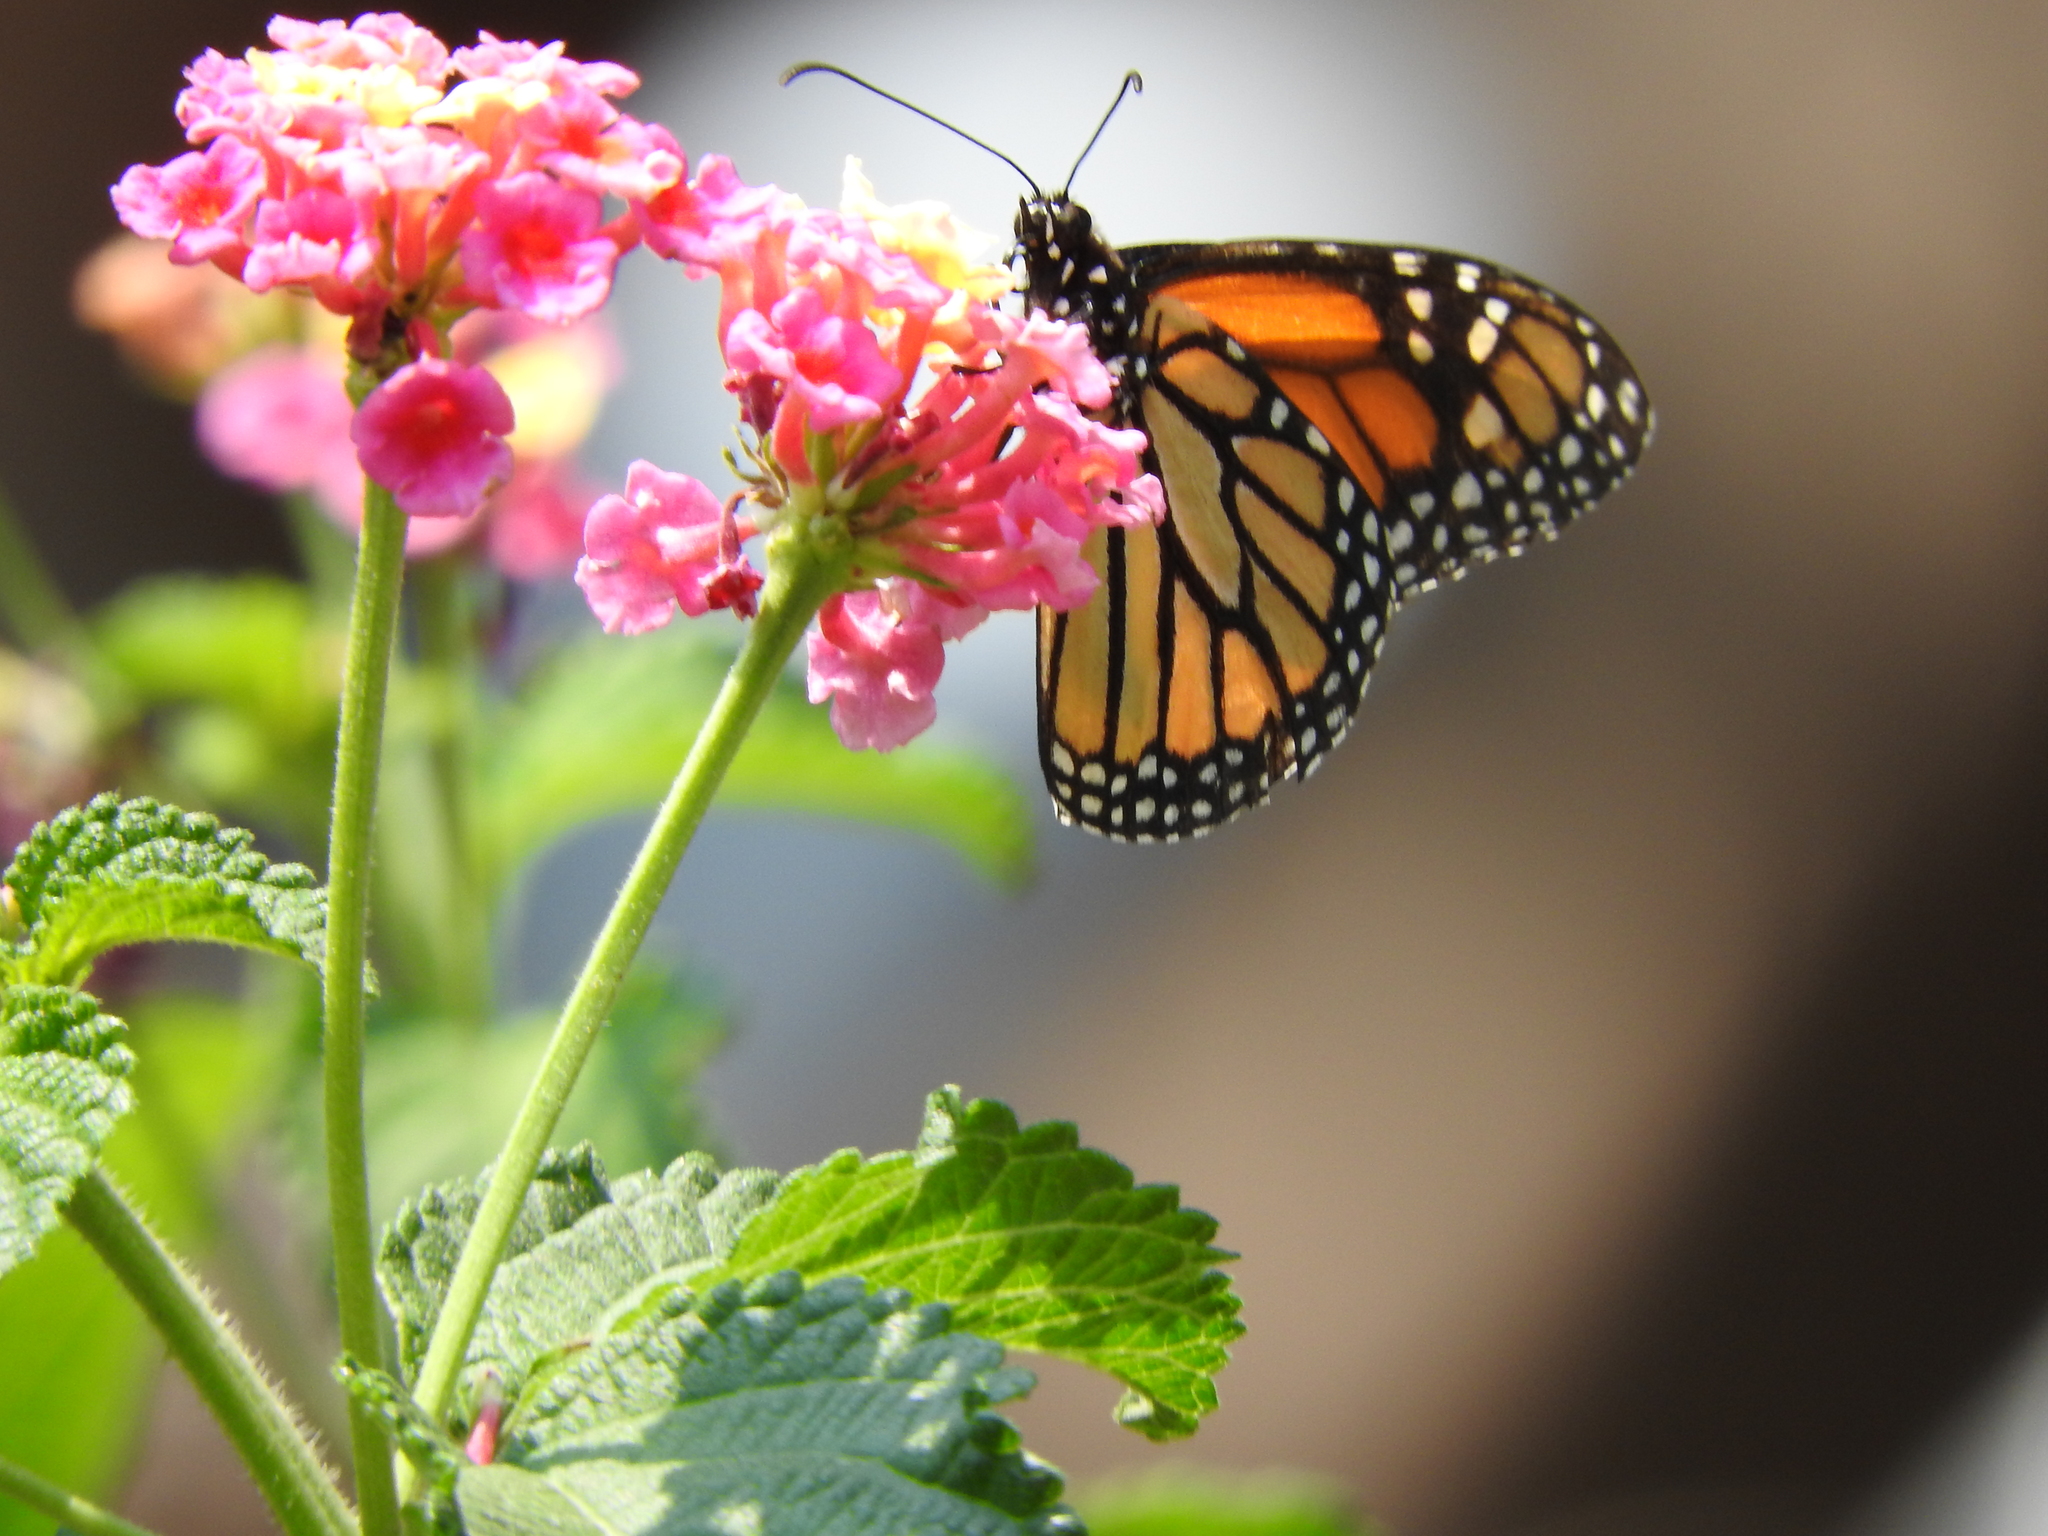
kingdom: Animalia
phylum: Arthropoda
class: Insecta
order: Lepidoptera
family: Nymphalidae
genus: Danaus
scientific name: Danaus plexippus
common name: Monarch
